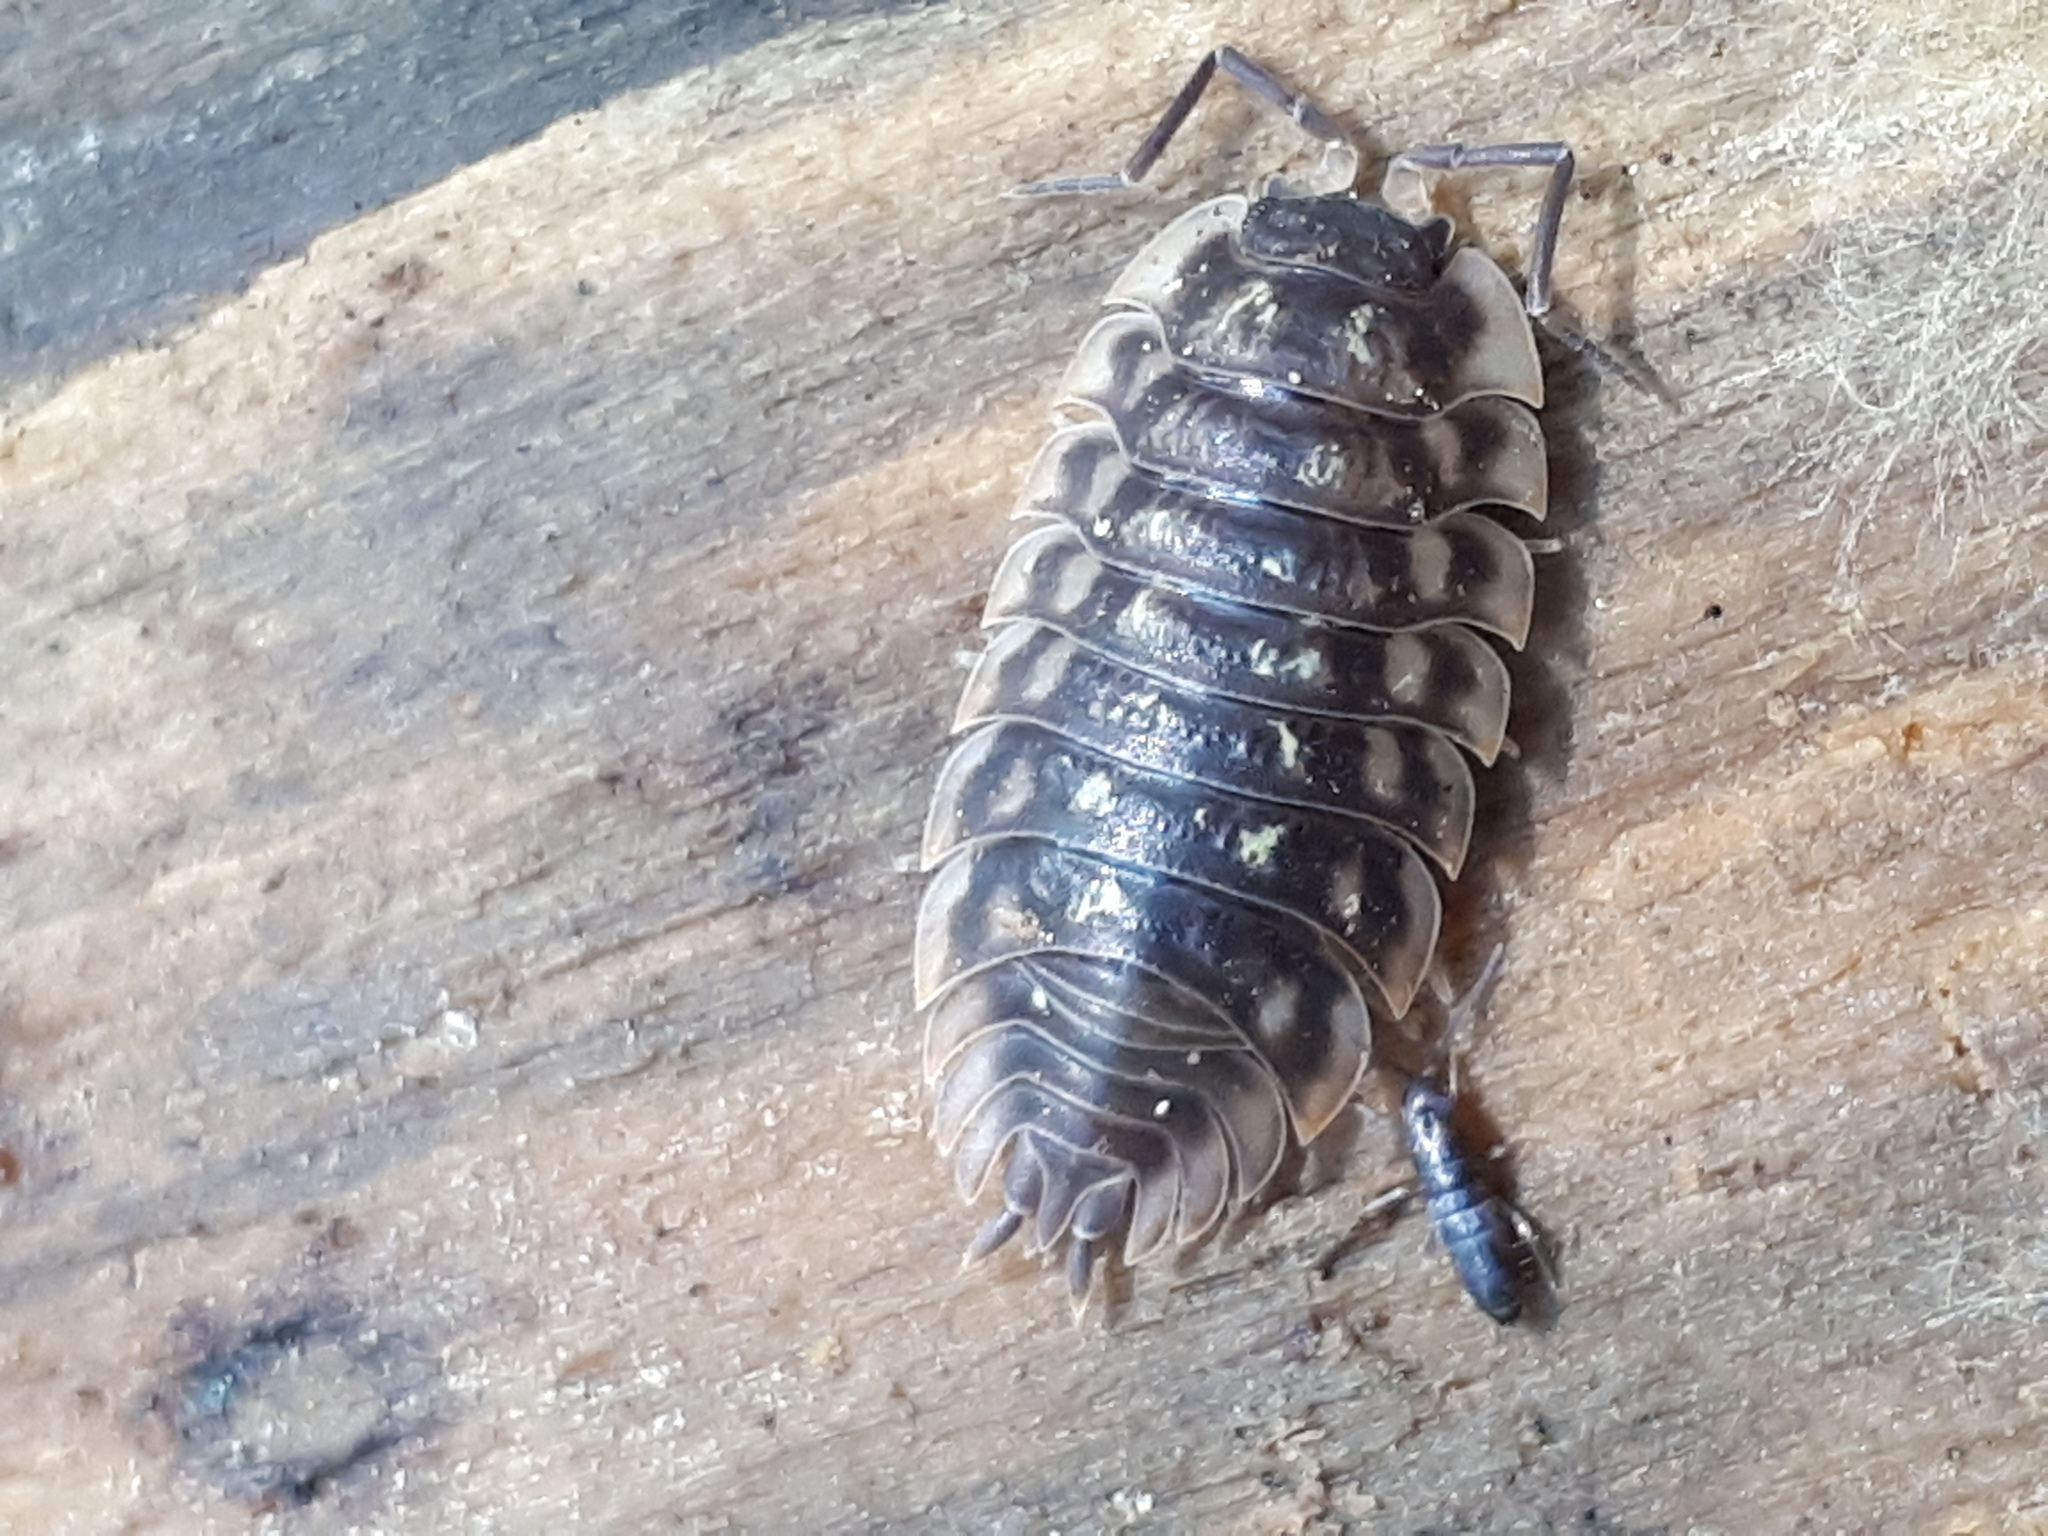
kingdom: Animalia
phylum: Arthropoda
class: Malacostraca
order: Isopoda
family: Oniscidae
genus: Oniscus
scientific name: Oniscus asellus
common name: Common shiny woodlouse
